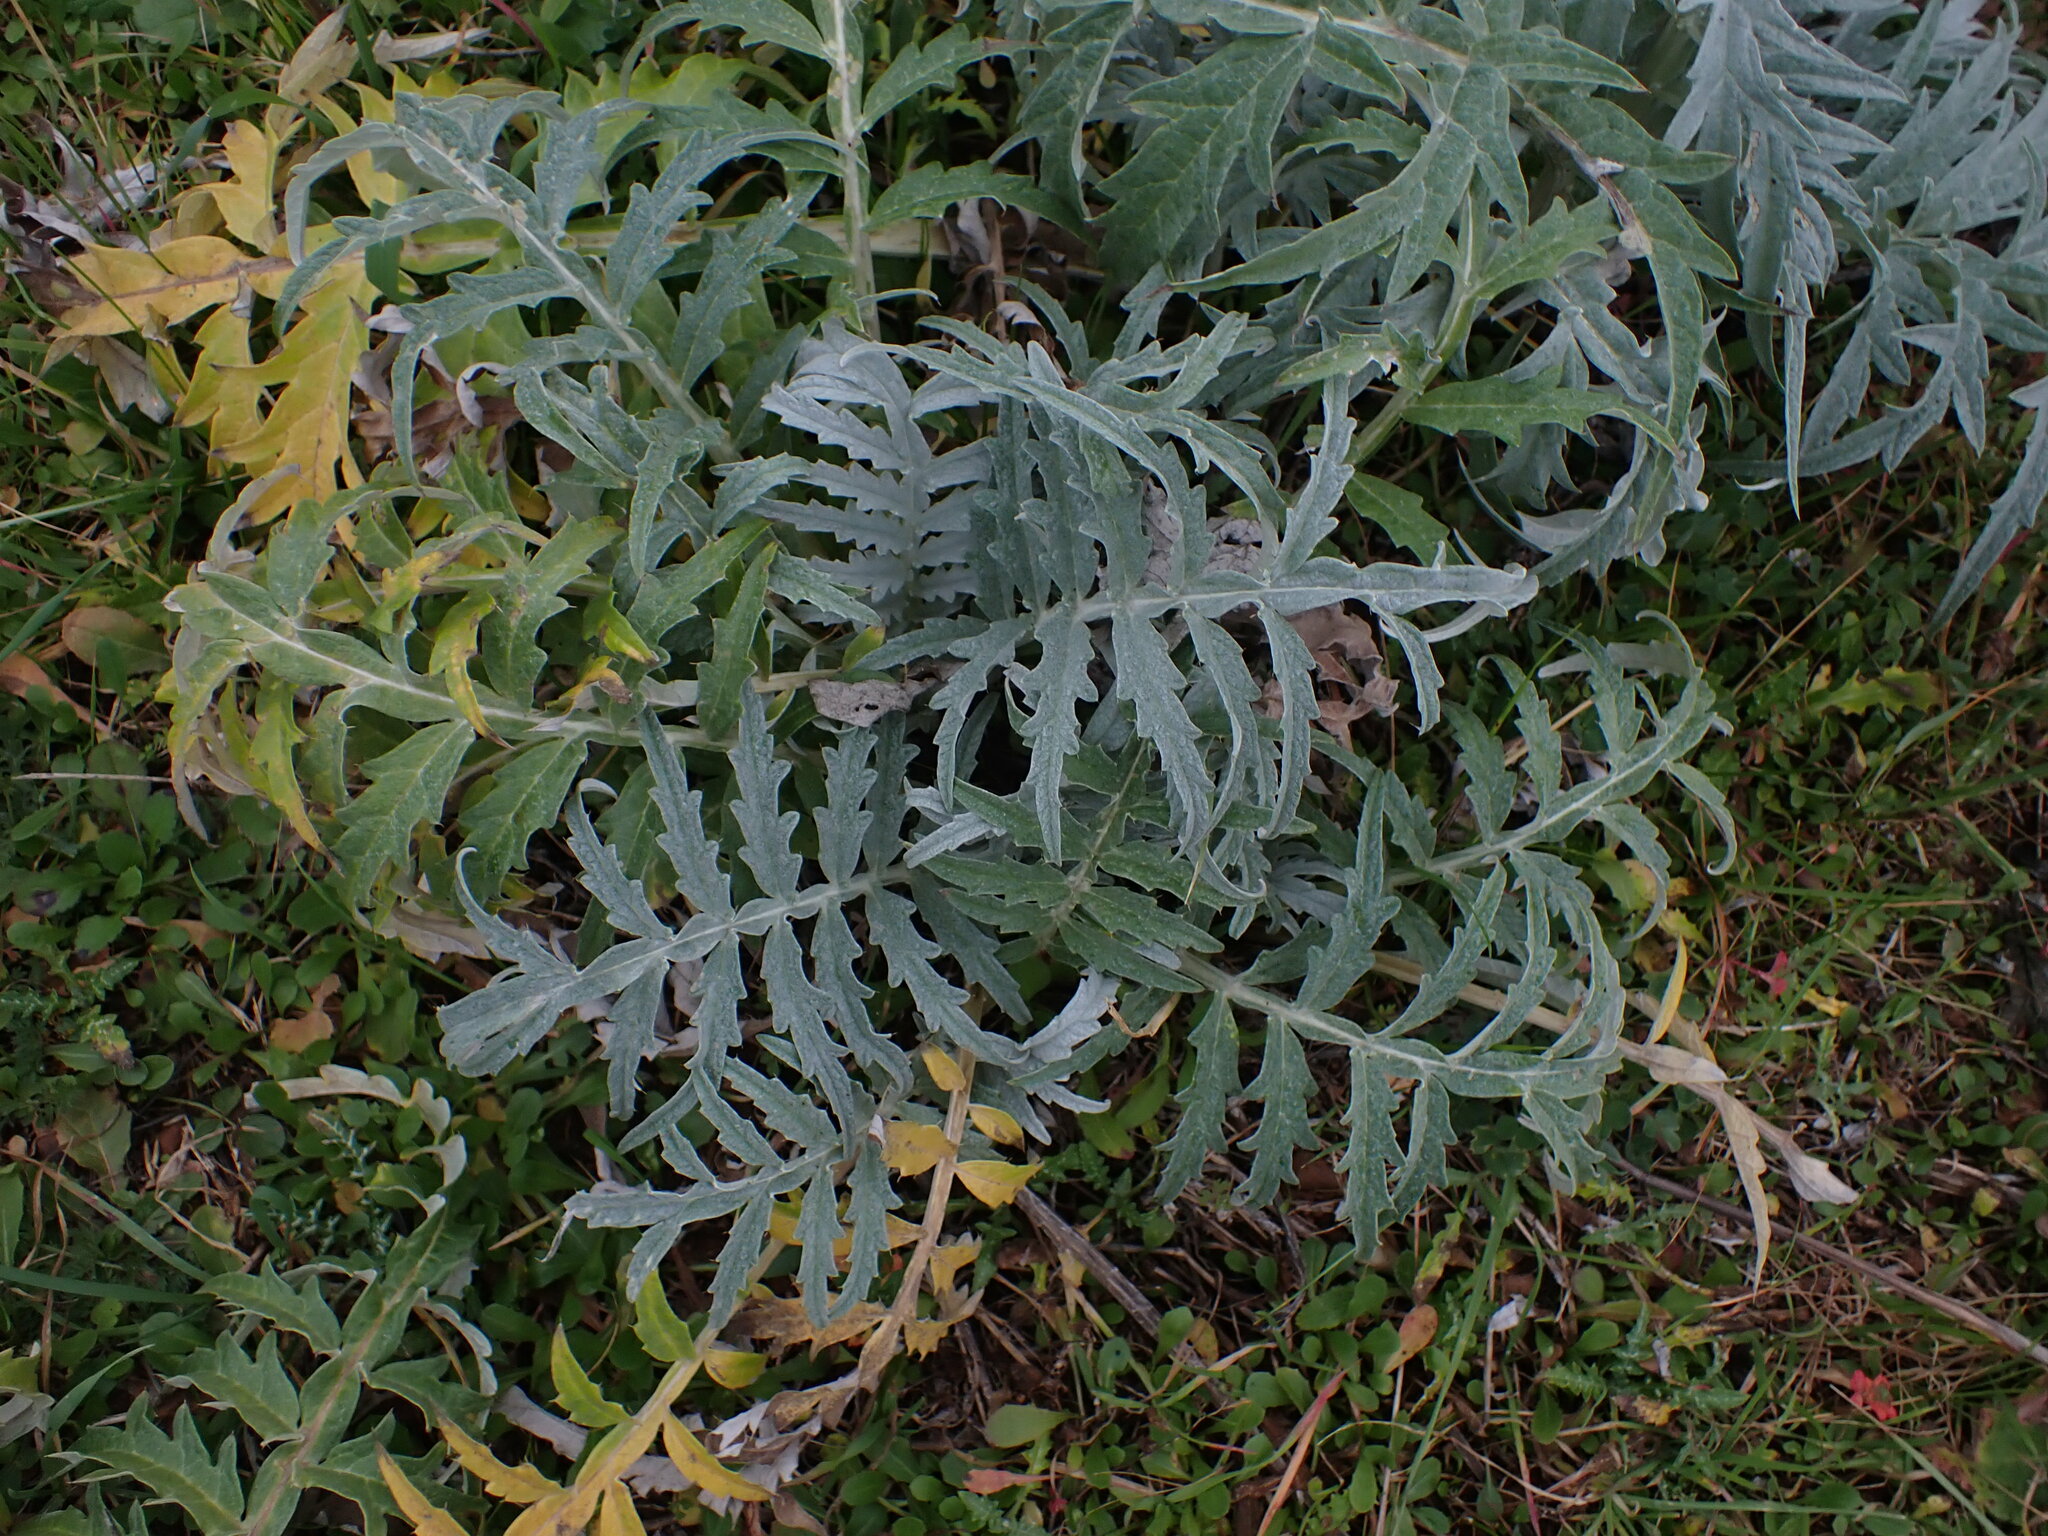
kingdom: Plantae
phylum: Tracheophyta
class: Magnoliopsida
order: Asterales
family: Asteraceae
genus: Cynara
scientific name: Cynara cardunculus
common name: Globe artichoke
